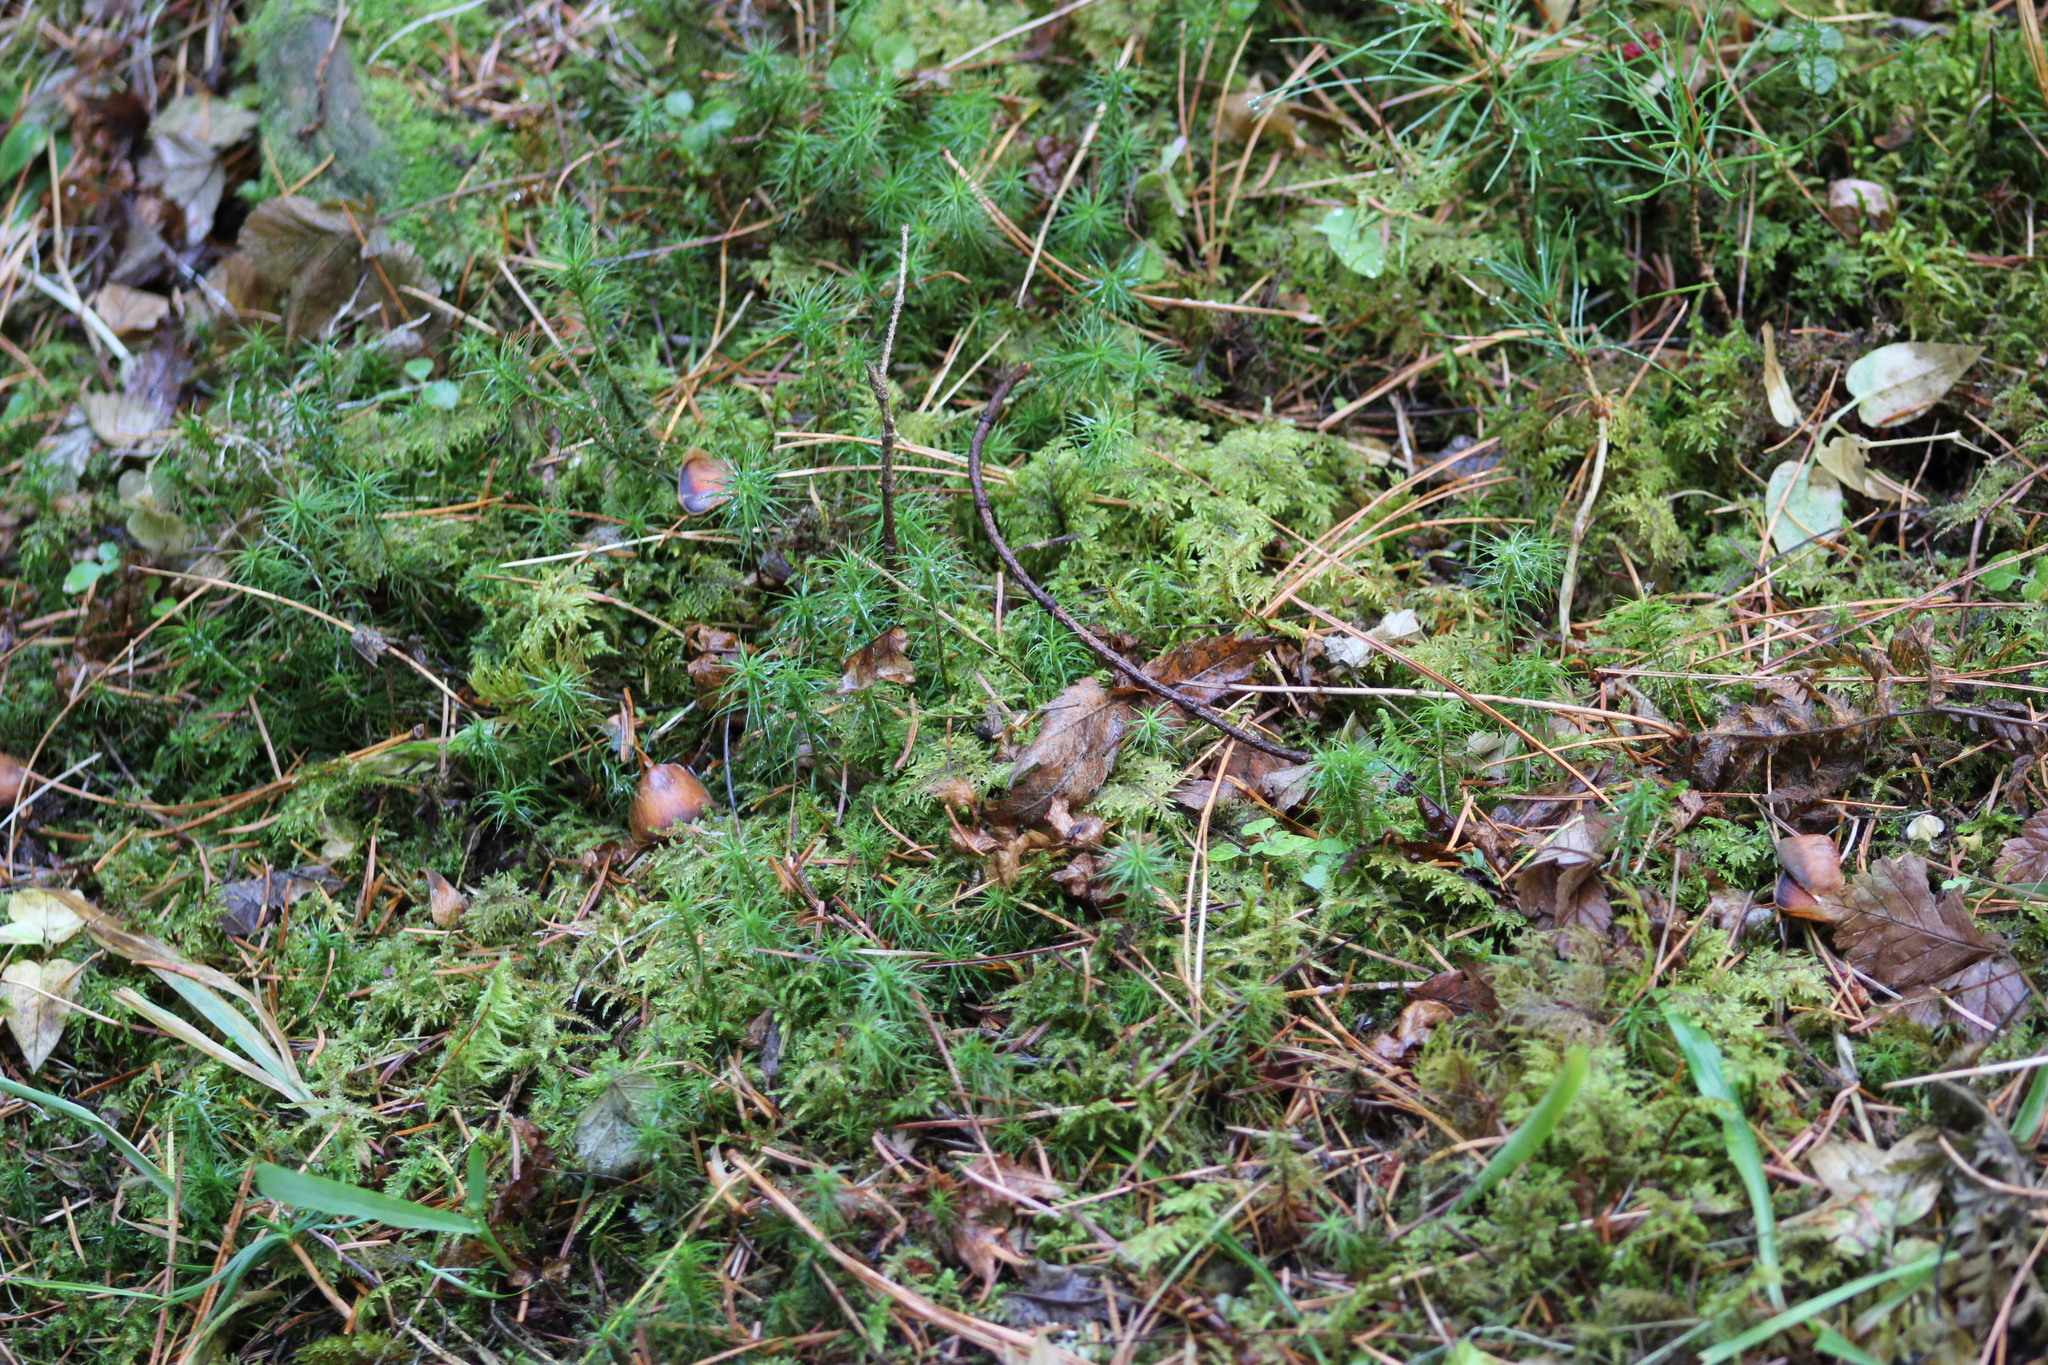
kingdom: Plantae
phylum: Bryophyta
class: Bryopsida
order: Hypnales
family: Hylocomiaceae
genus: Hylocomium
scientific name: Hylocomium splendens
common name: Stairstep moss
